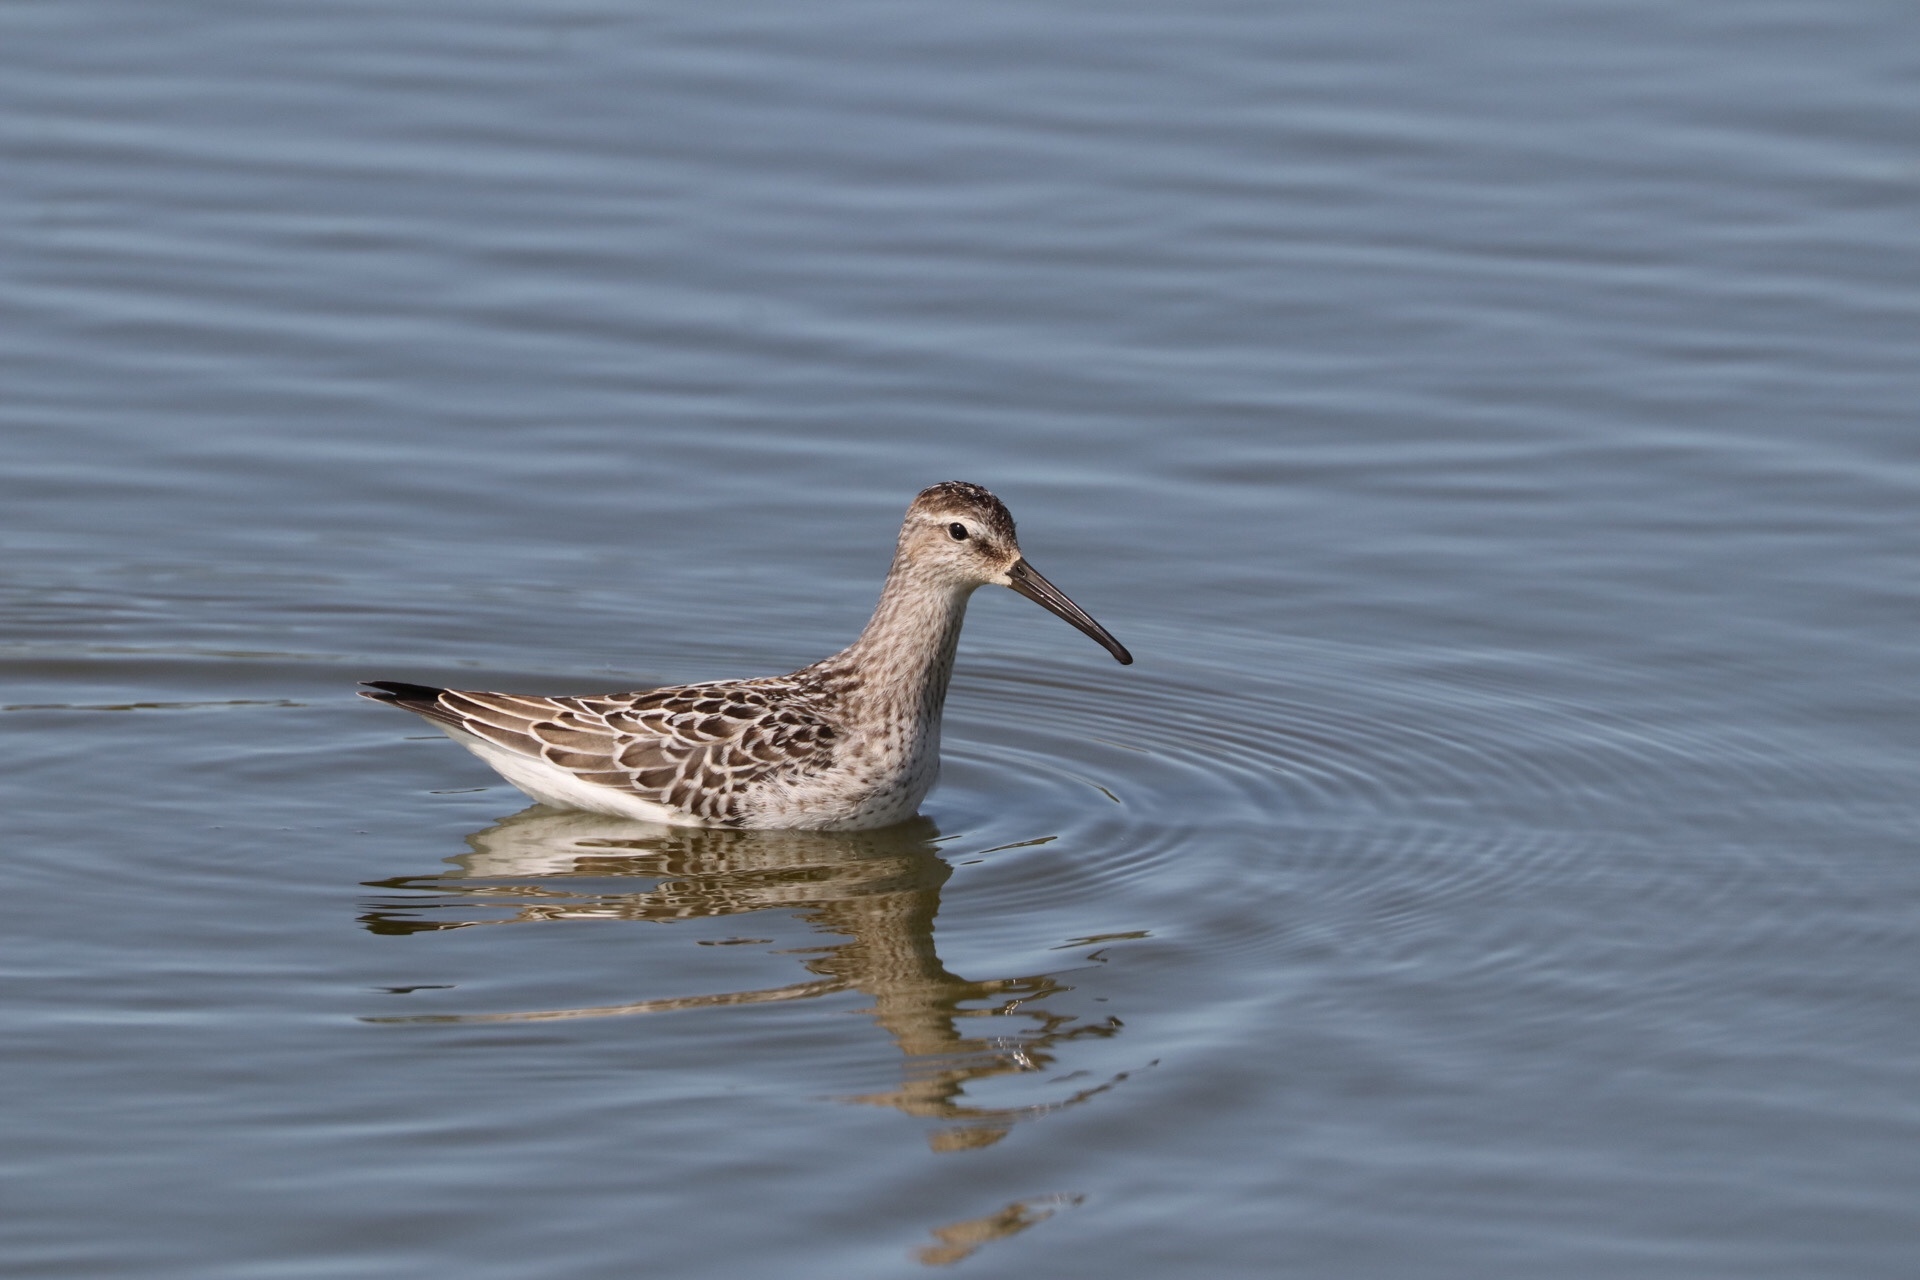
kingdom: Animalia
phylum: Chordata
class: Aves
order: Charadriiformes
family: Scolopacidae
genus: Calidris
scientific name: Calidris himantopus
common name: Stilt sandpiper
